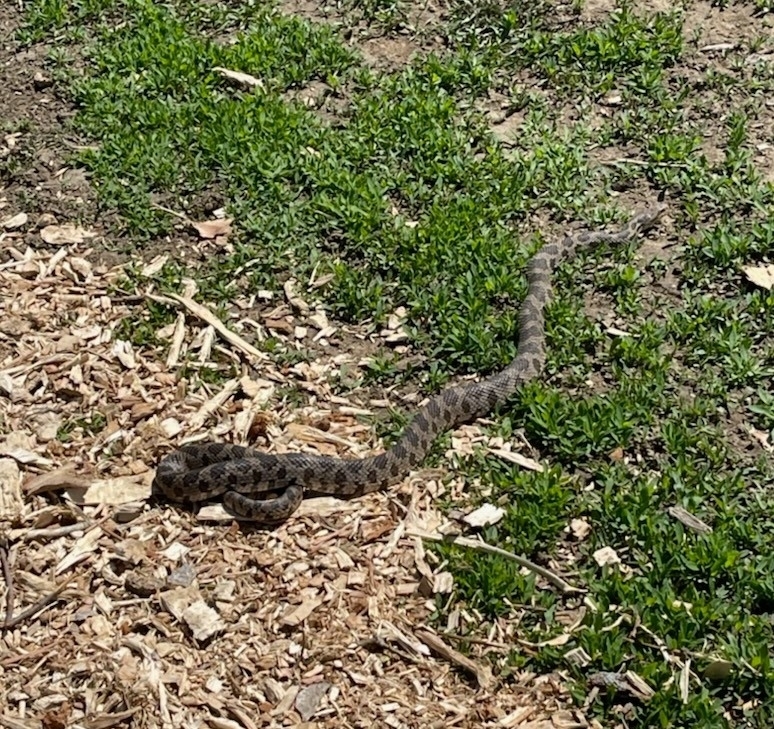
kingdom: Animalia
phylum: Chordata
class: Squamata
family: Colubridae
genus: Pantherophis
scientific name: Pantherophis ramspotti
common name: Western foxsnake
